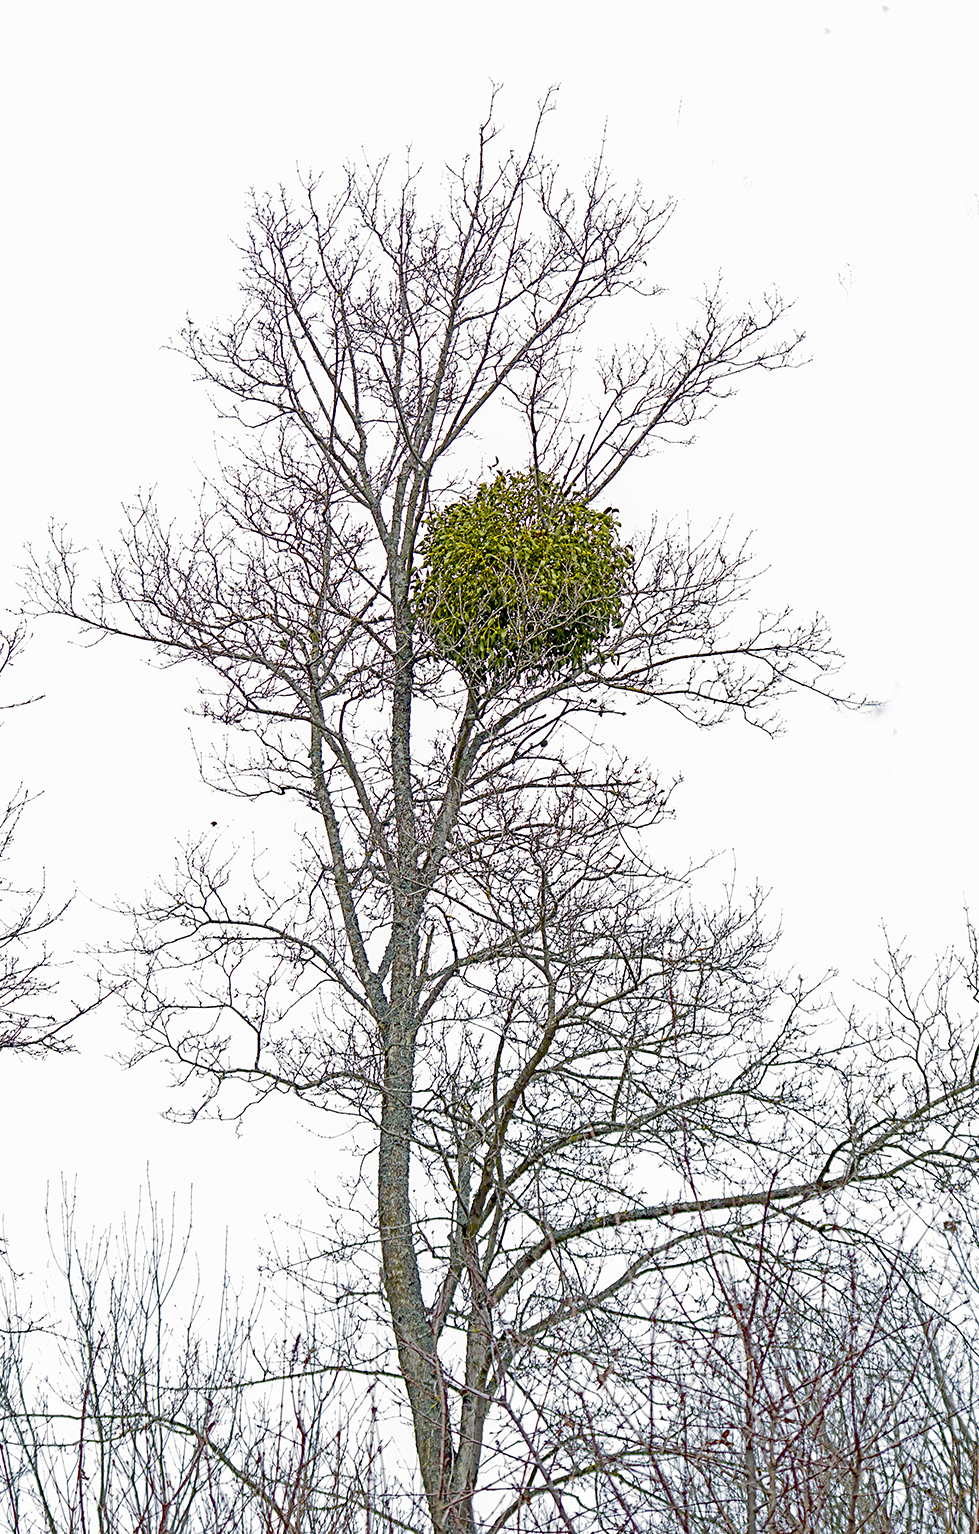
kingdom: Plantae
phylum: Tracheophyta
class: Magnoliopsida
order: Santalales
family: Viscaceae
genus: Viscum
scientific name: Viscum album
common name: Mistletoe
